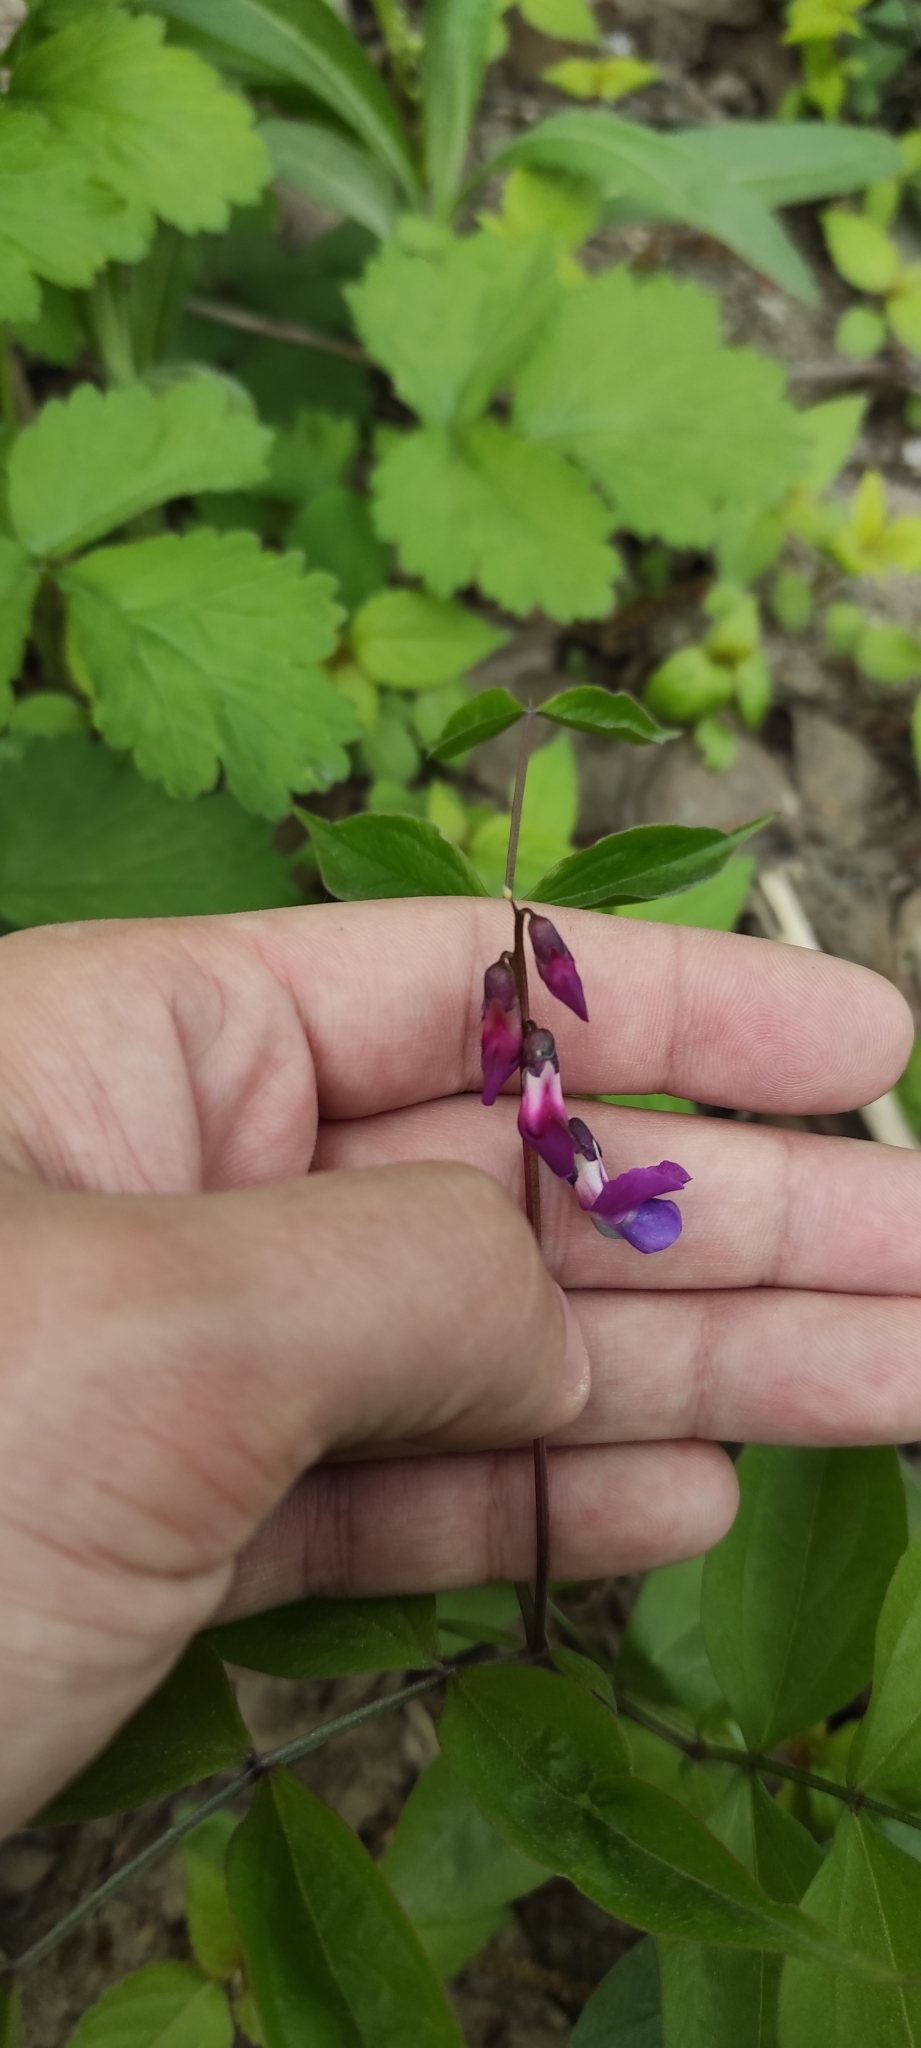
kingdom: Plantae
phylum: Tracheophyta
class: Magnoliopsida
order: Fabales
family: Fabaceae
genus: Lathyrus
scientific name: Lathyrus vernus
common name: Spring pea
